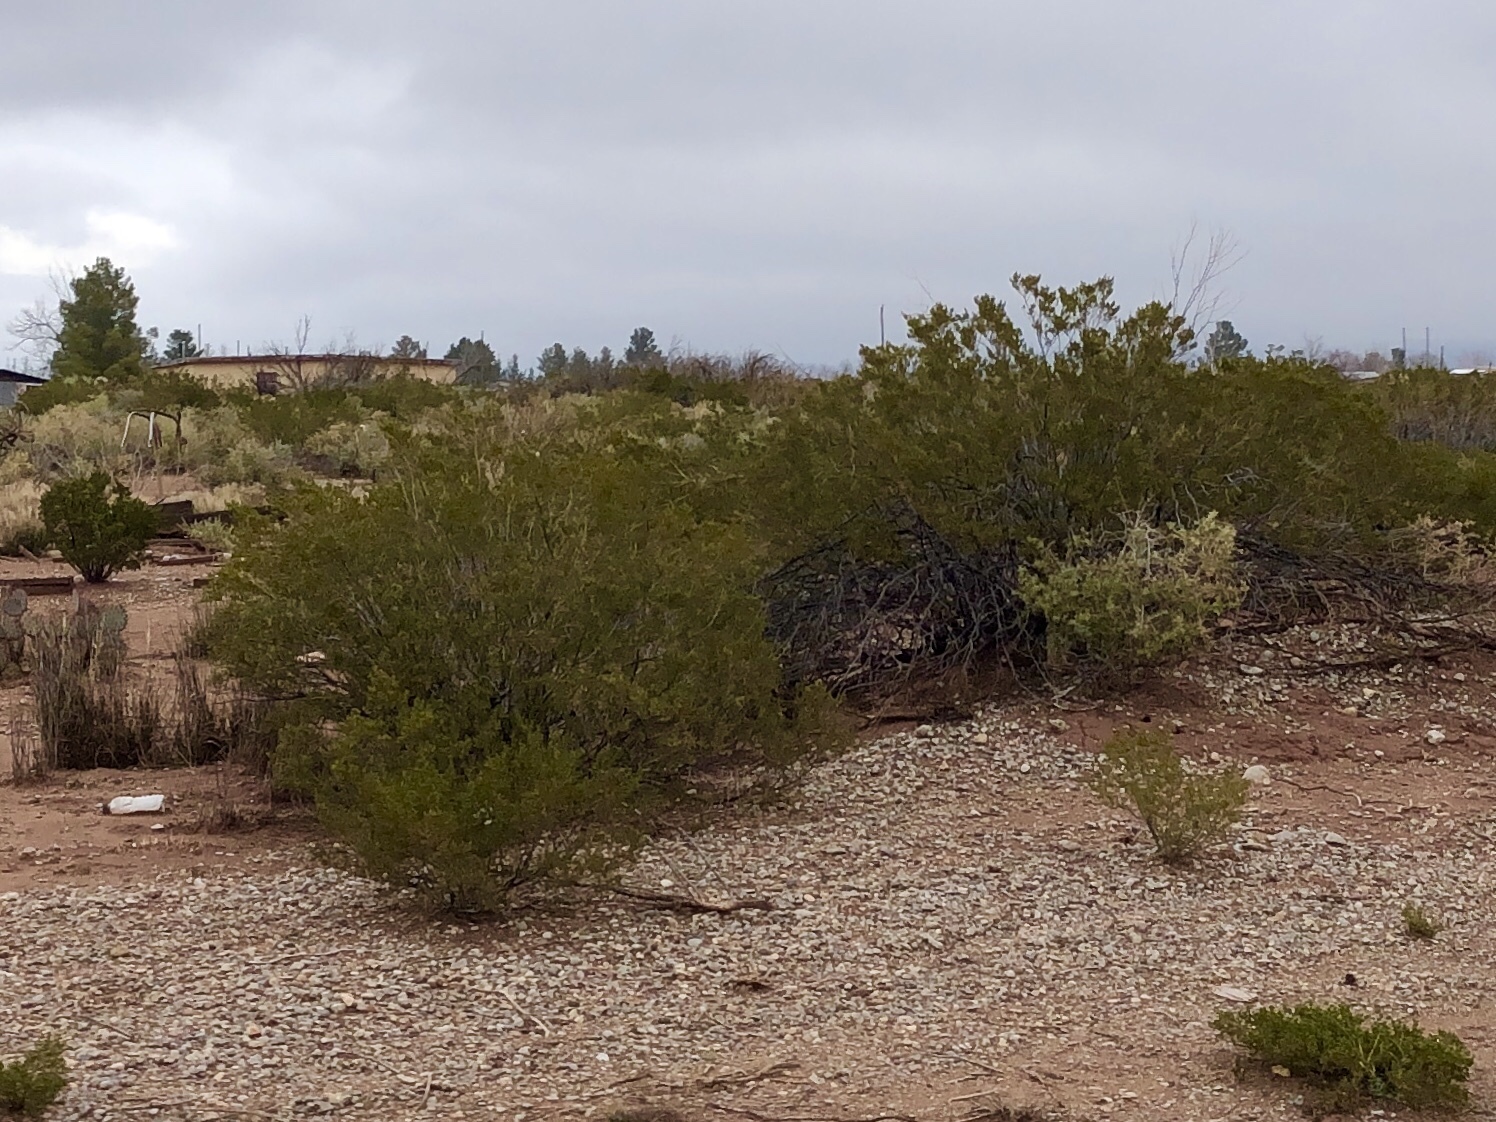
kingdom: Plantae
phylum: Tracheophyta
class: Magnoliopsida
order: Zygophyllales
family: Zygophyllaceae
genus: Larrea
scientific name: Larrea tridentata
